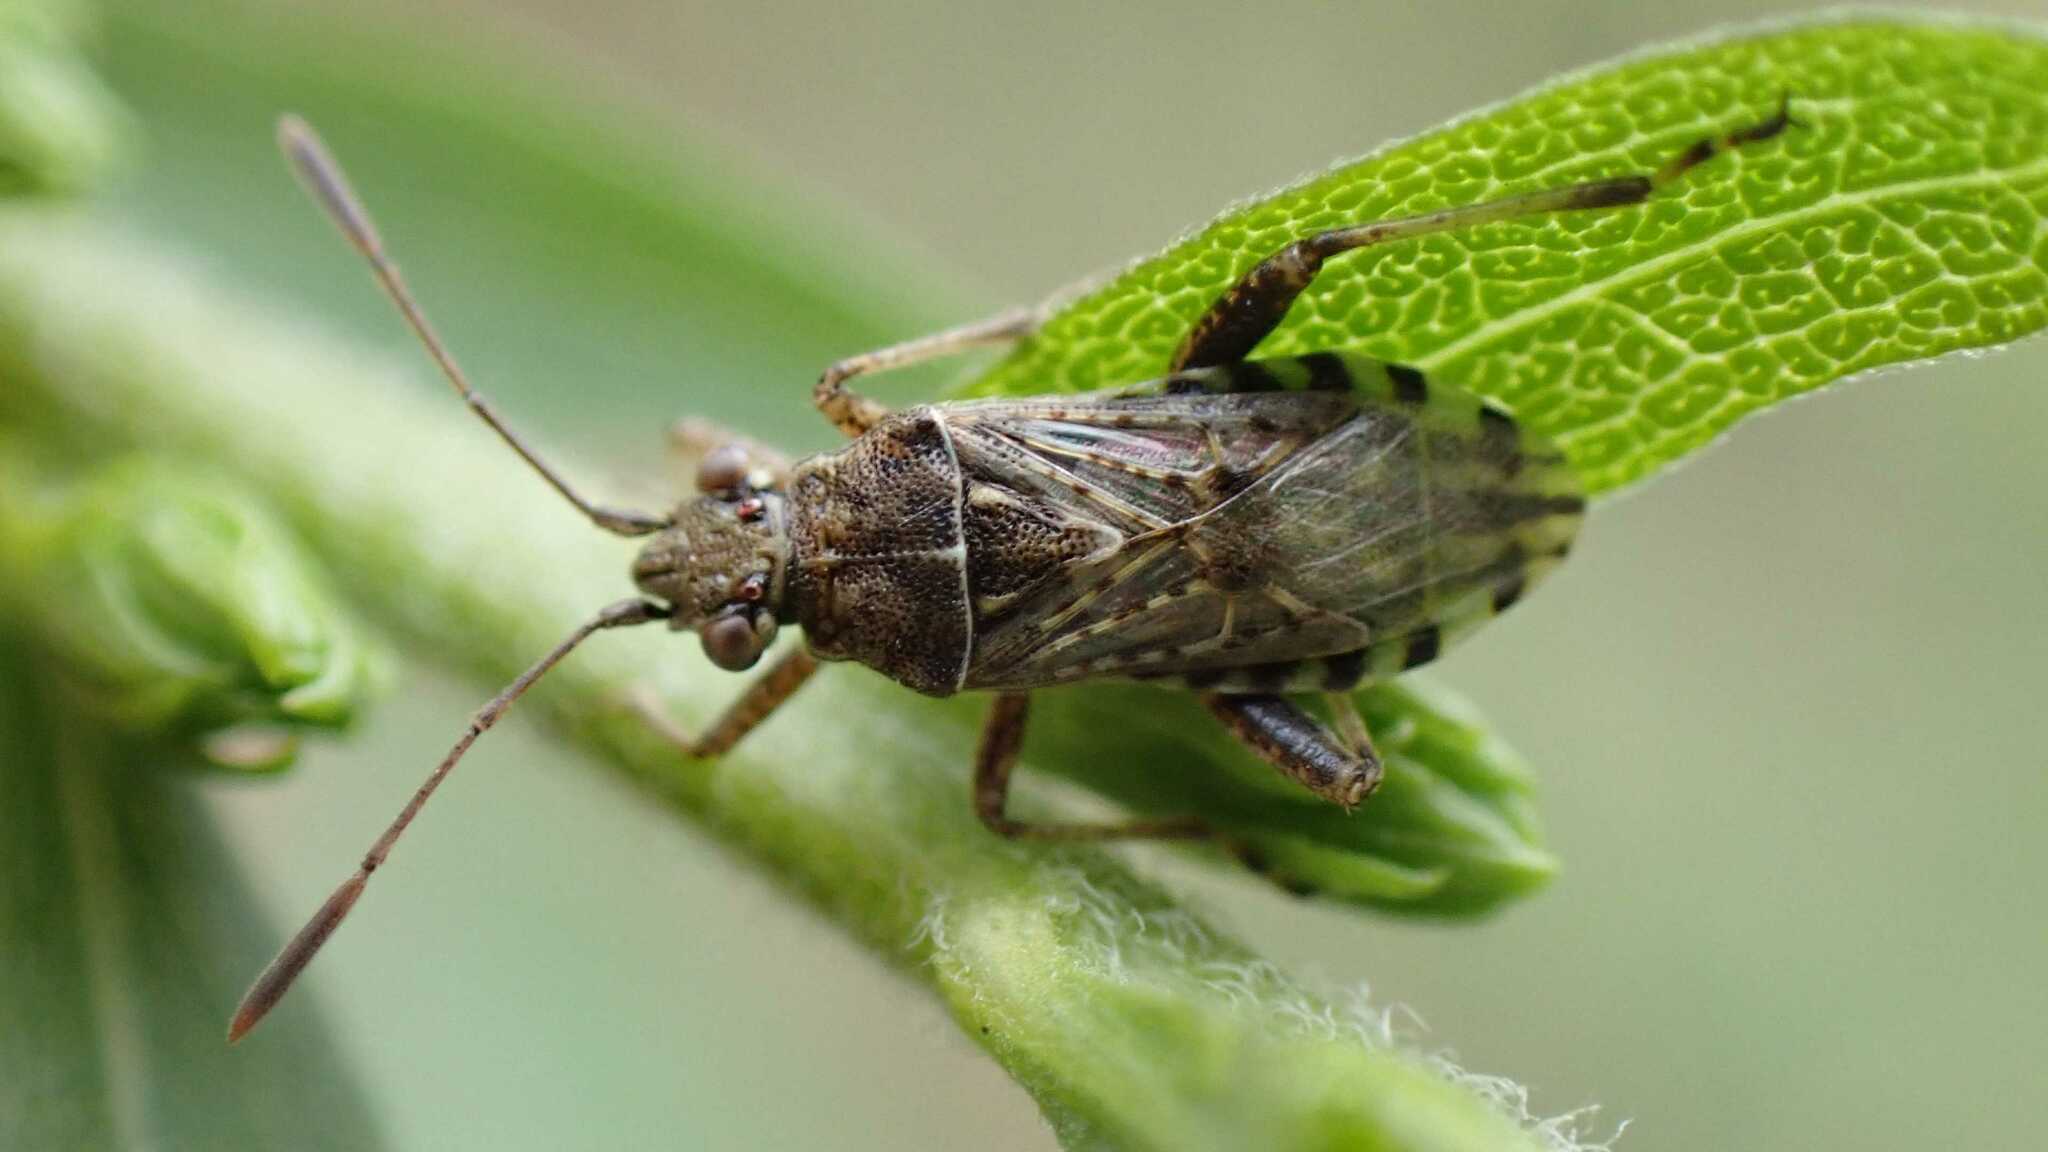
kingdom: Animalia
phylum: Arthropoda
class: Insecta
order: Hemiptera
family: Rhopalidae
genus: Stictopleurus
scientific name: Stictopleurus punctatonervosus
